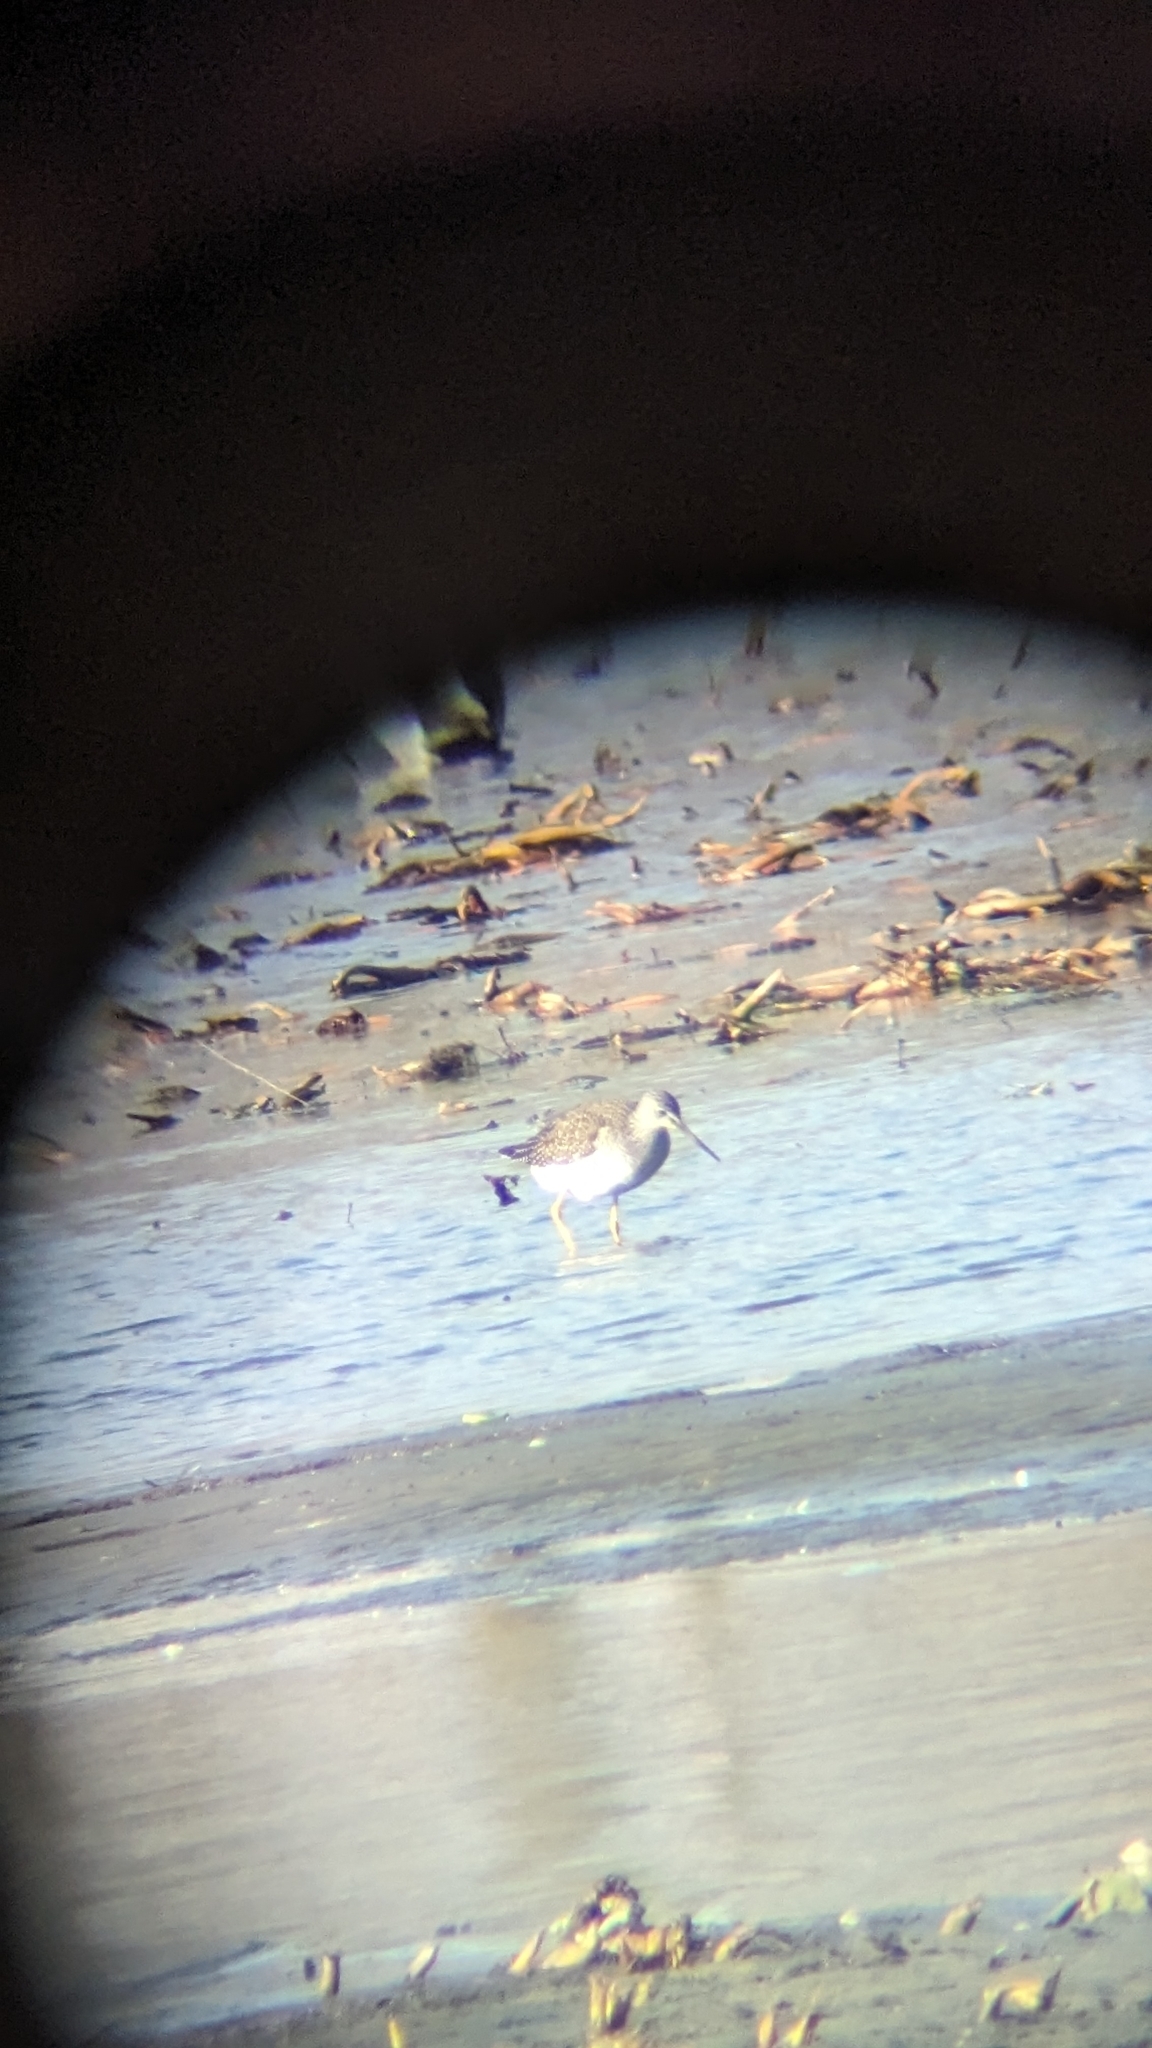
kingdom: Animalia
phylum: Chordata
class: Aves
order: Charadriiformes
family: Scolopacidae
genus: Tringa
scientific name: Tringa melanoleuca
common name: Greater yellowlegs
